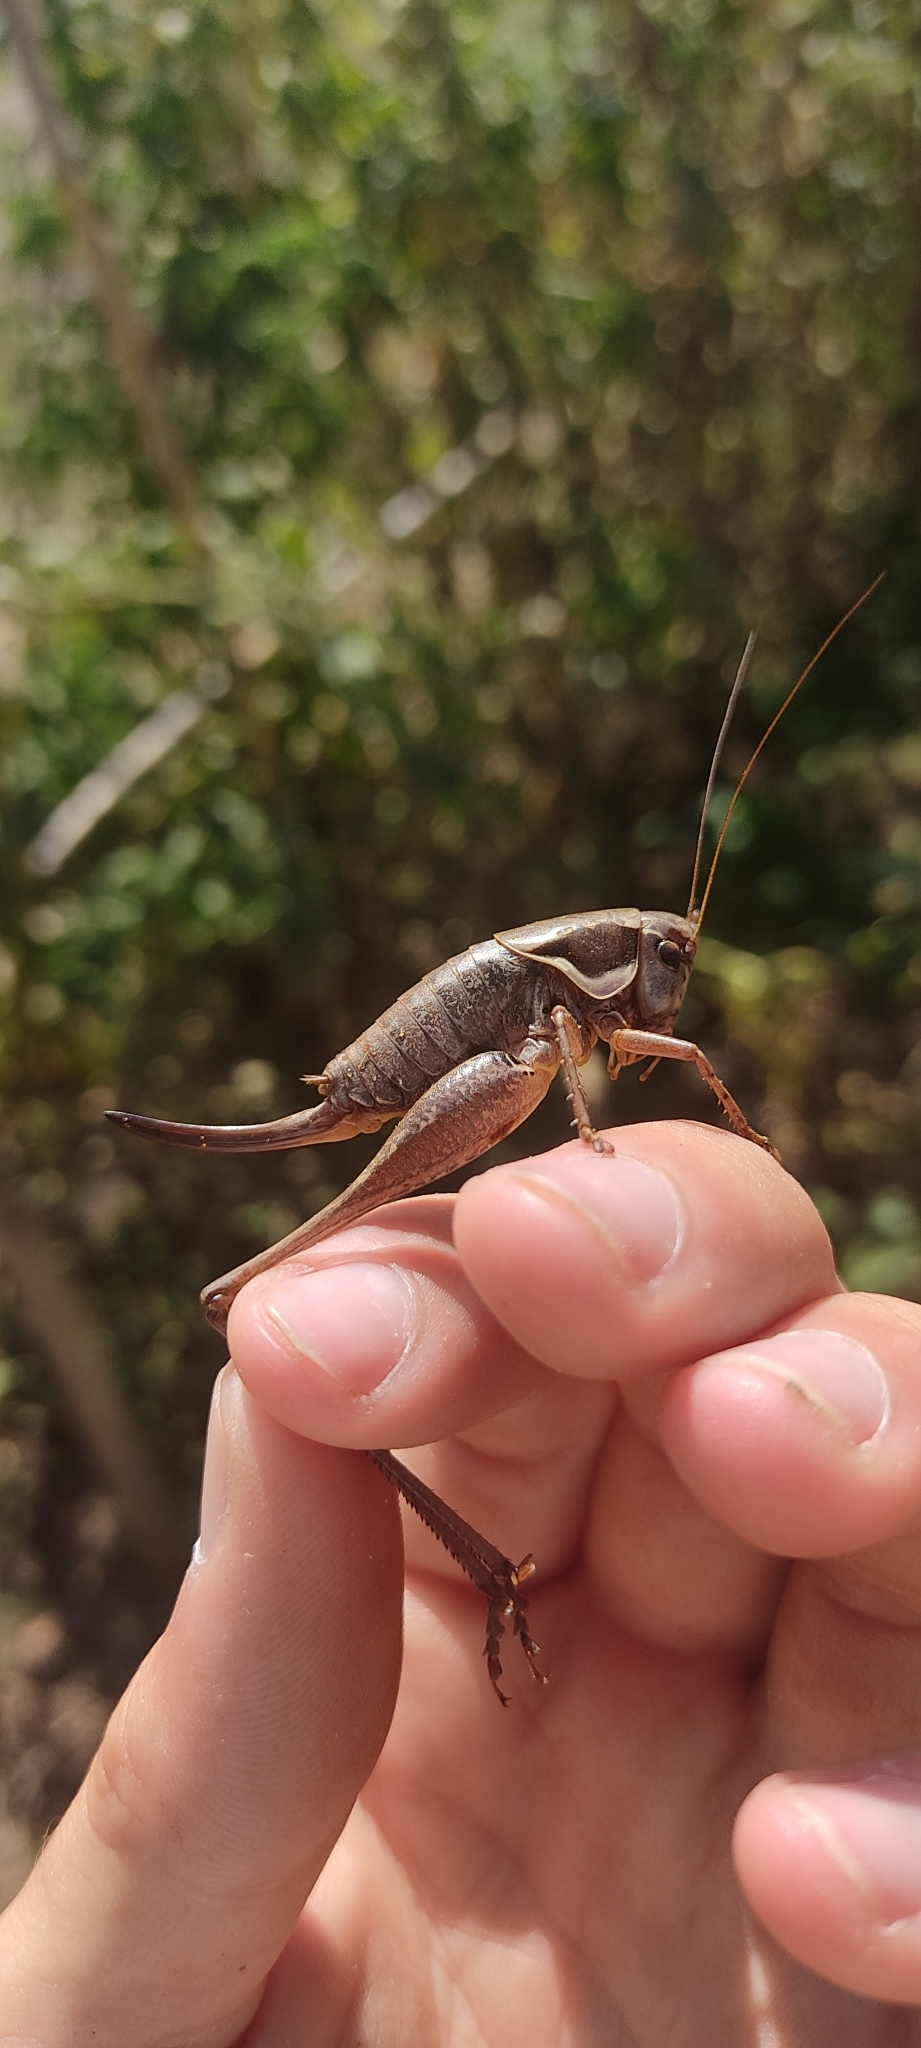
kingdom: Animalia
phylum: Arthropoda
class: Insecta
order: Orthoptera
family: Tettigoniidae
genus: Pholidoptera
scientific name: Pholidoptera femorata
